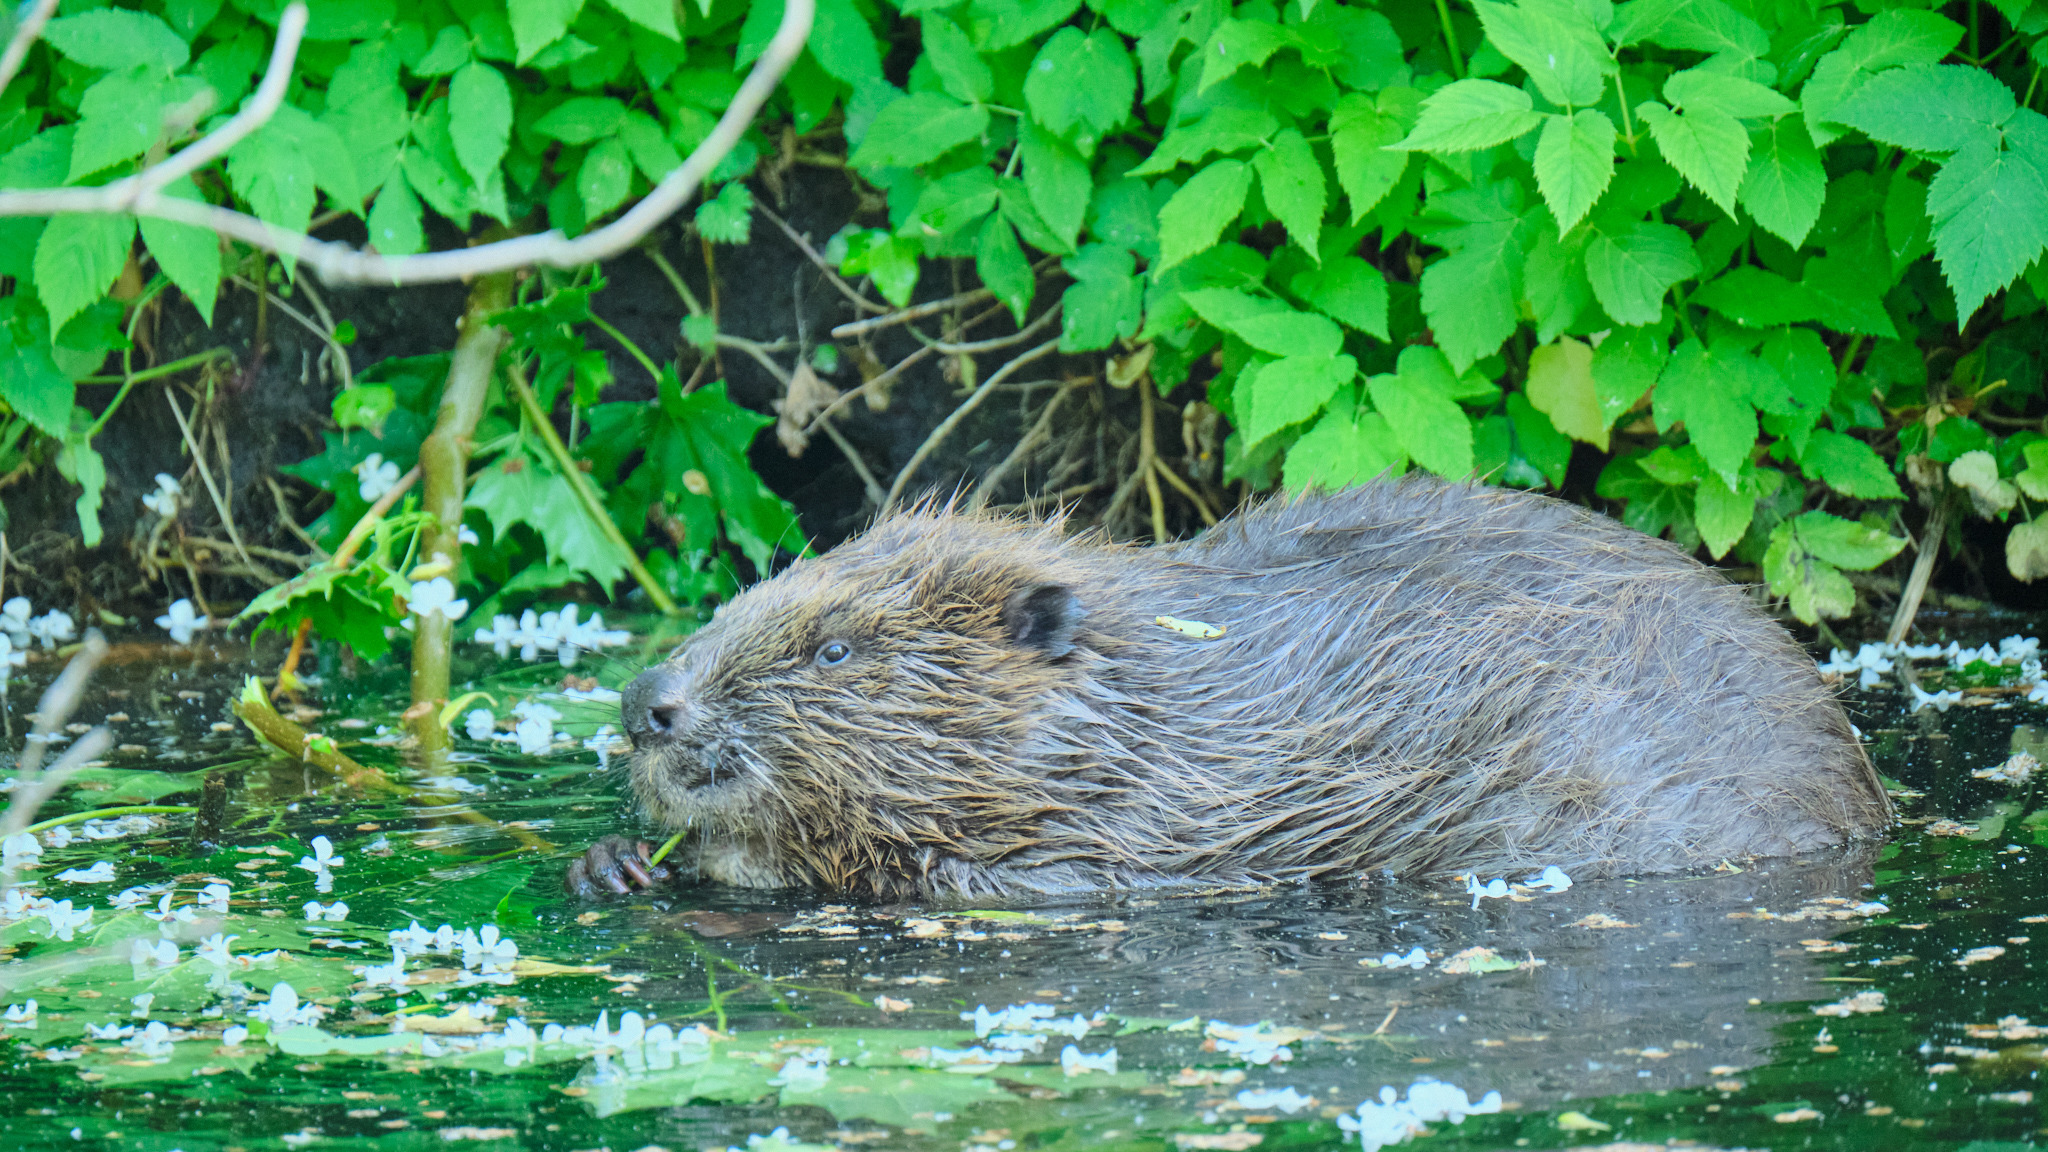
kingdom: Animalia
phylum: Chordata
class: Mammalia
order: Rodentia
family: Castoridae
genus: Castor
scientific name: Castor fiber
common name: Eurasian beaver
